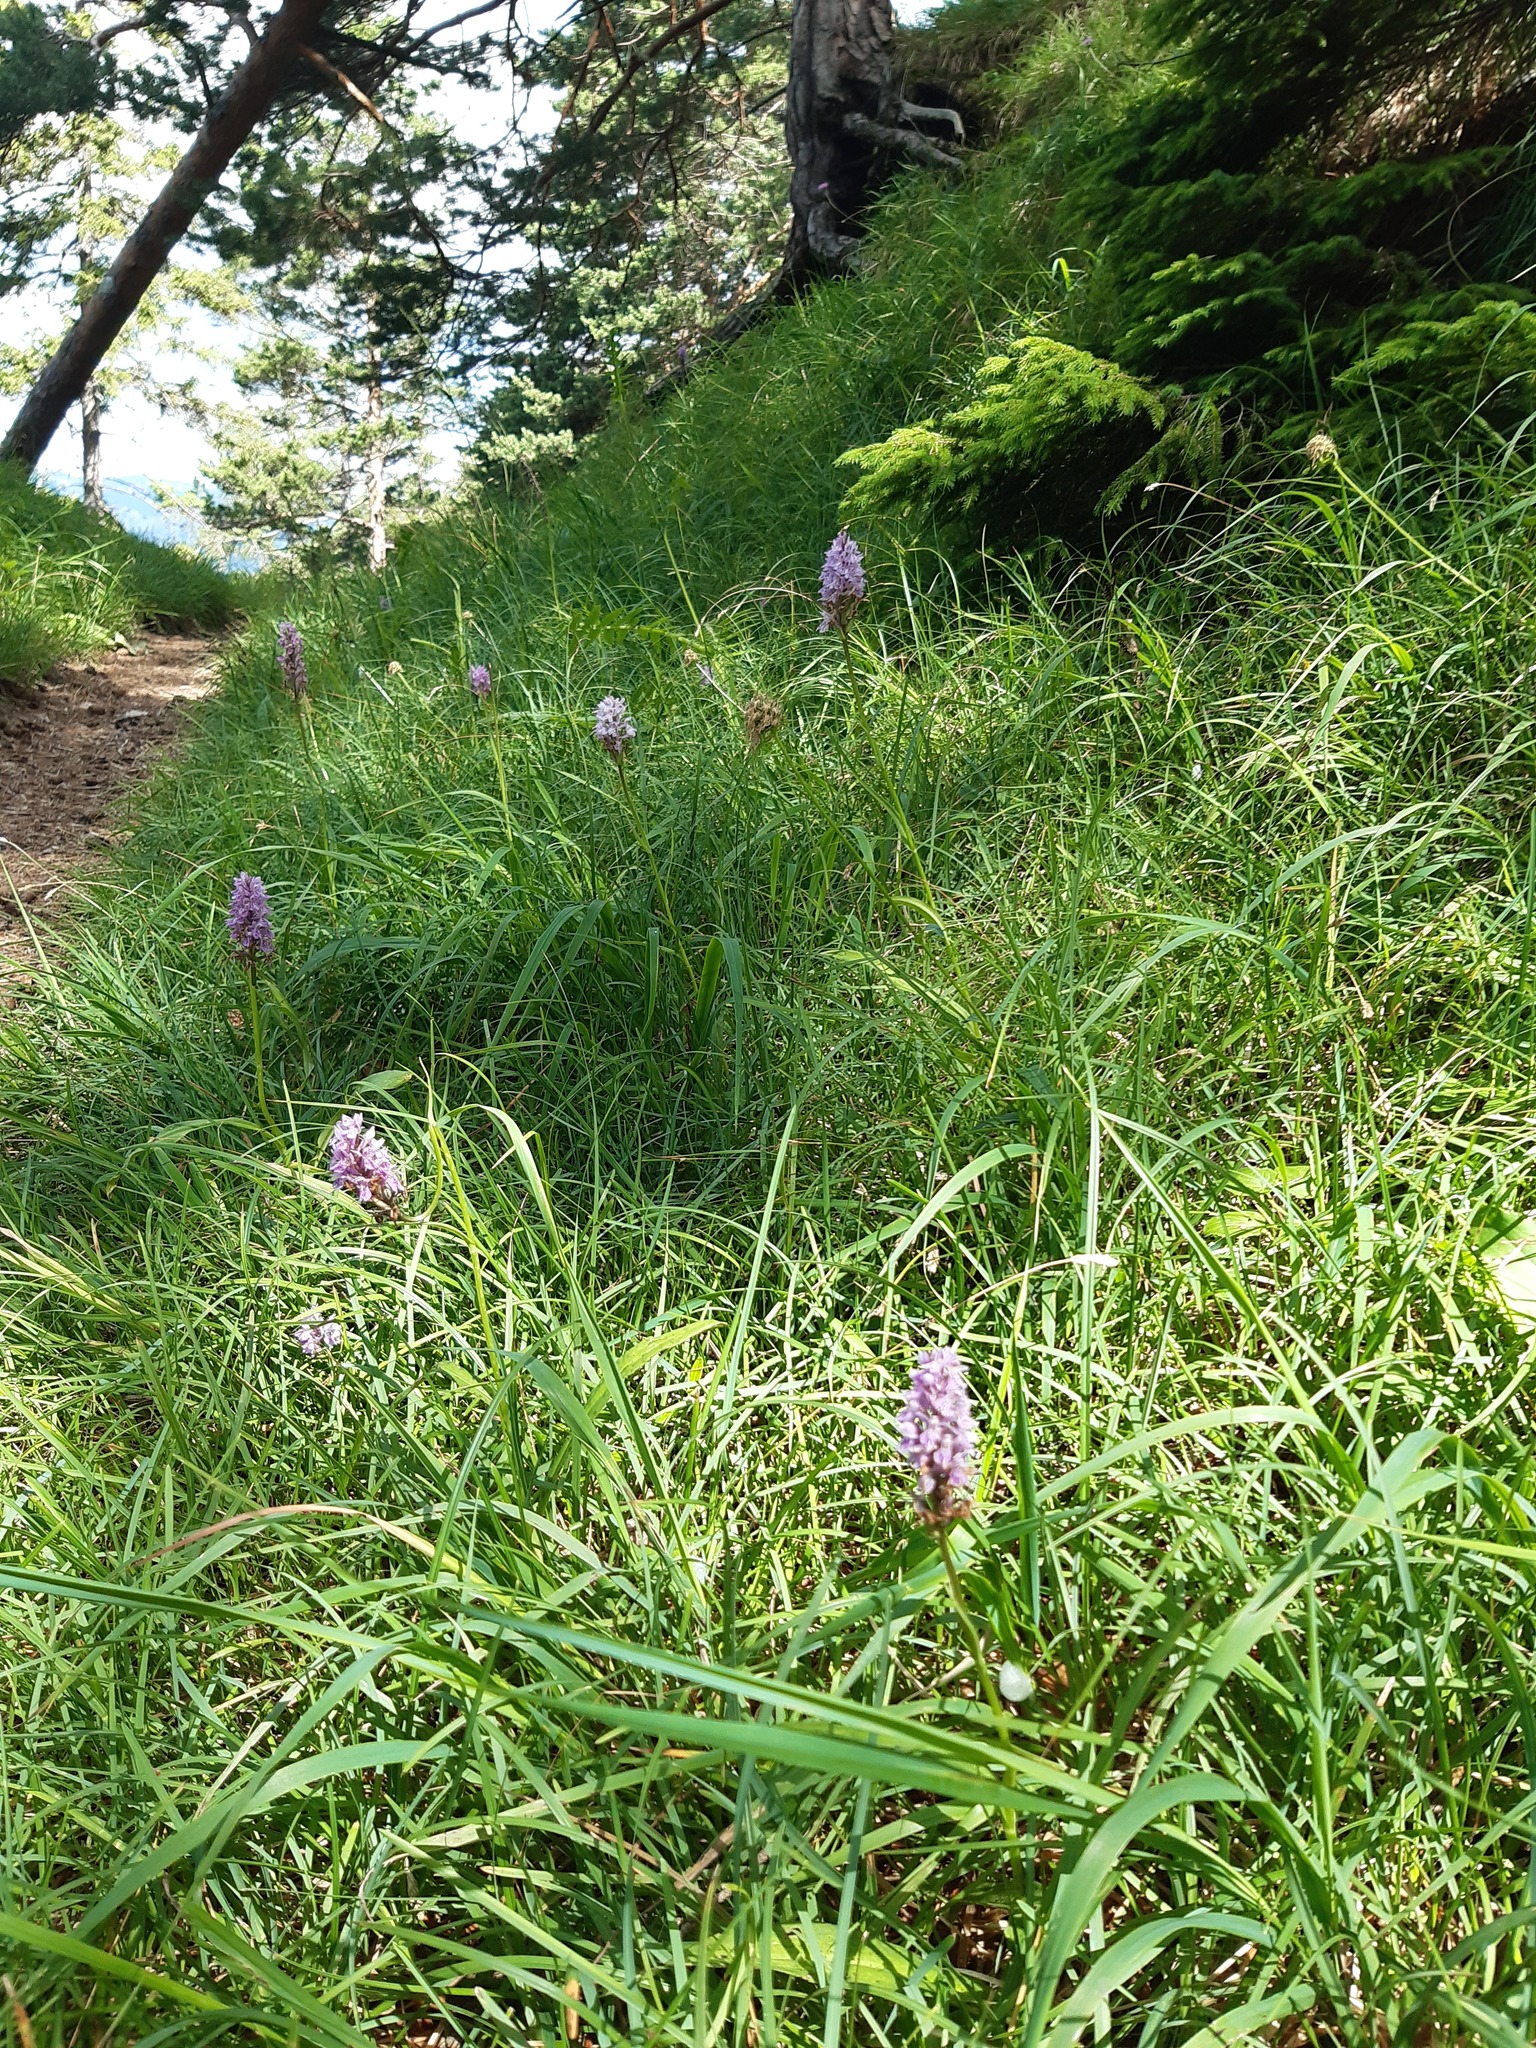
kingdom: Plantae
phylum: Tracheophyta
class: Liliopsida
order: Asparagales
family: Orchidaceae
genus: Dactylorhiza
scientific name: Dactylorhiza maculata
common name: Heath spotted-orchid
